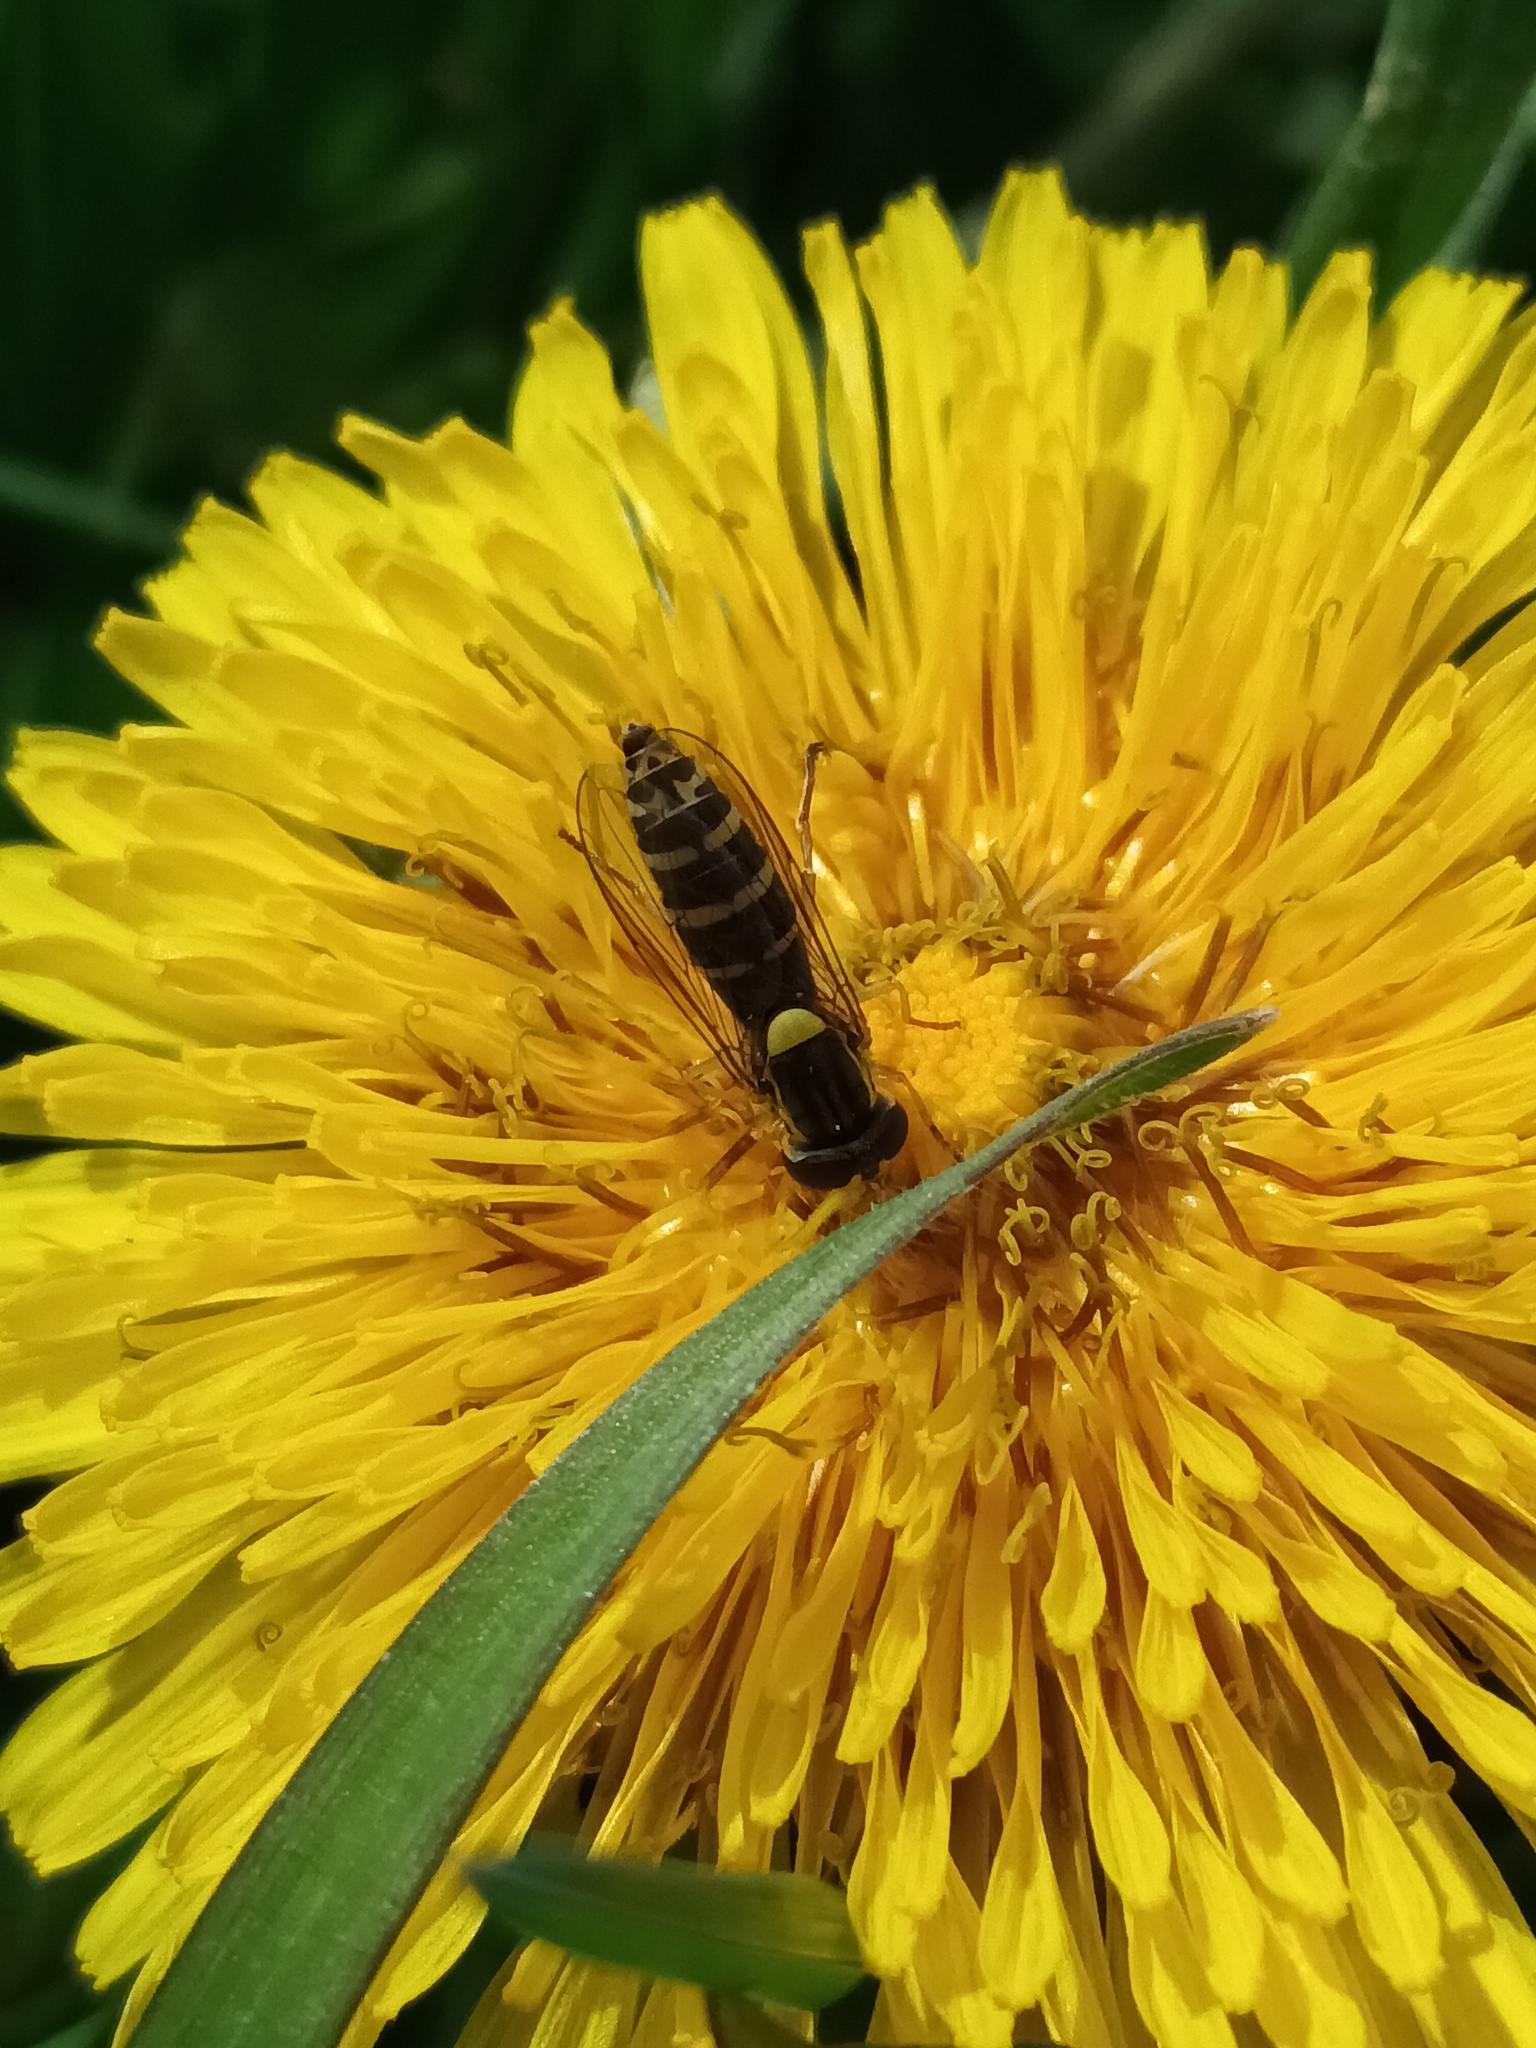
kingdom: Animalia
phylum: Arthropoda
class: Insecta
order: Diptera
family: Syrphidae
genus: Sphaerophoria
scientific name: Sphaerophoria
